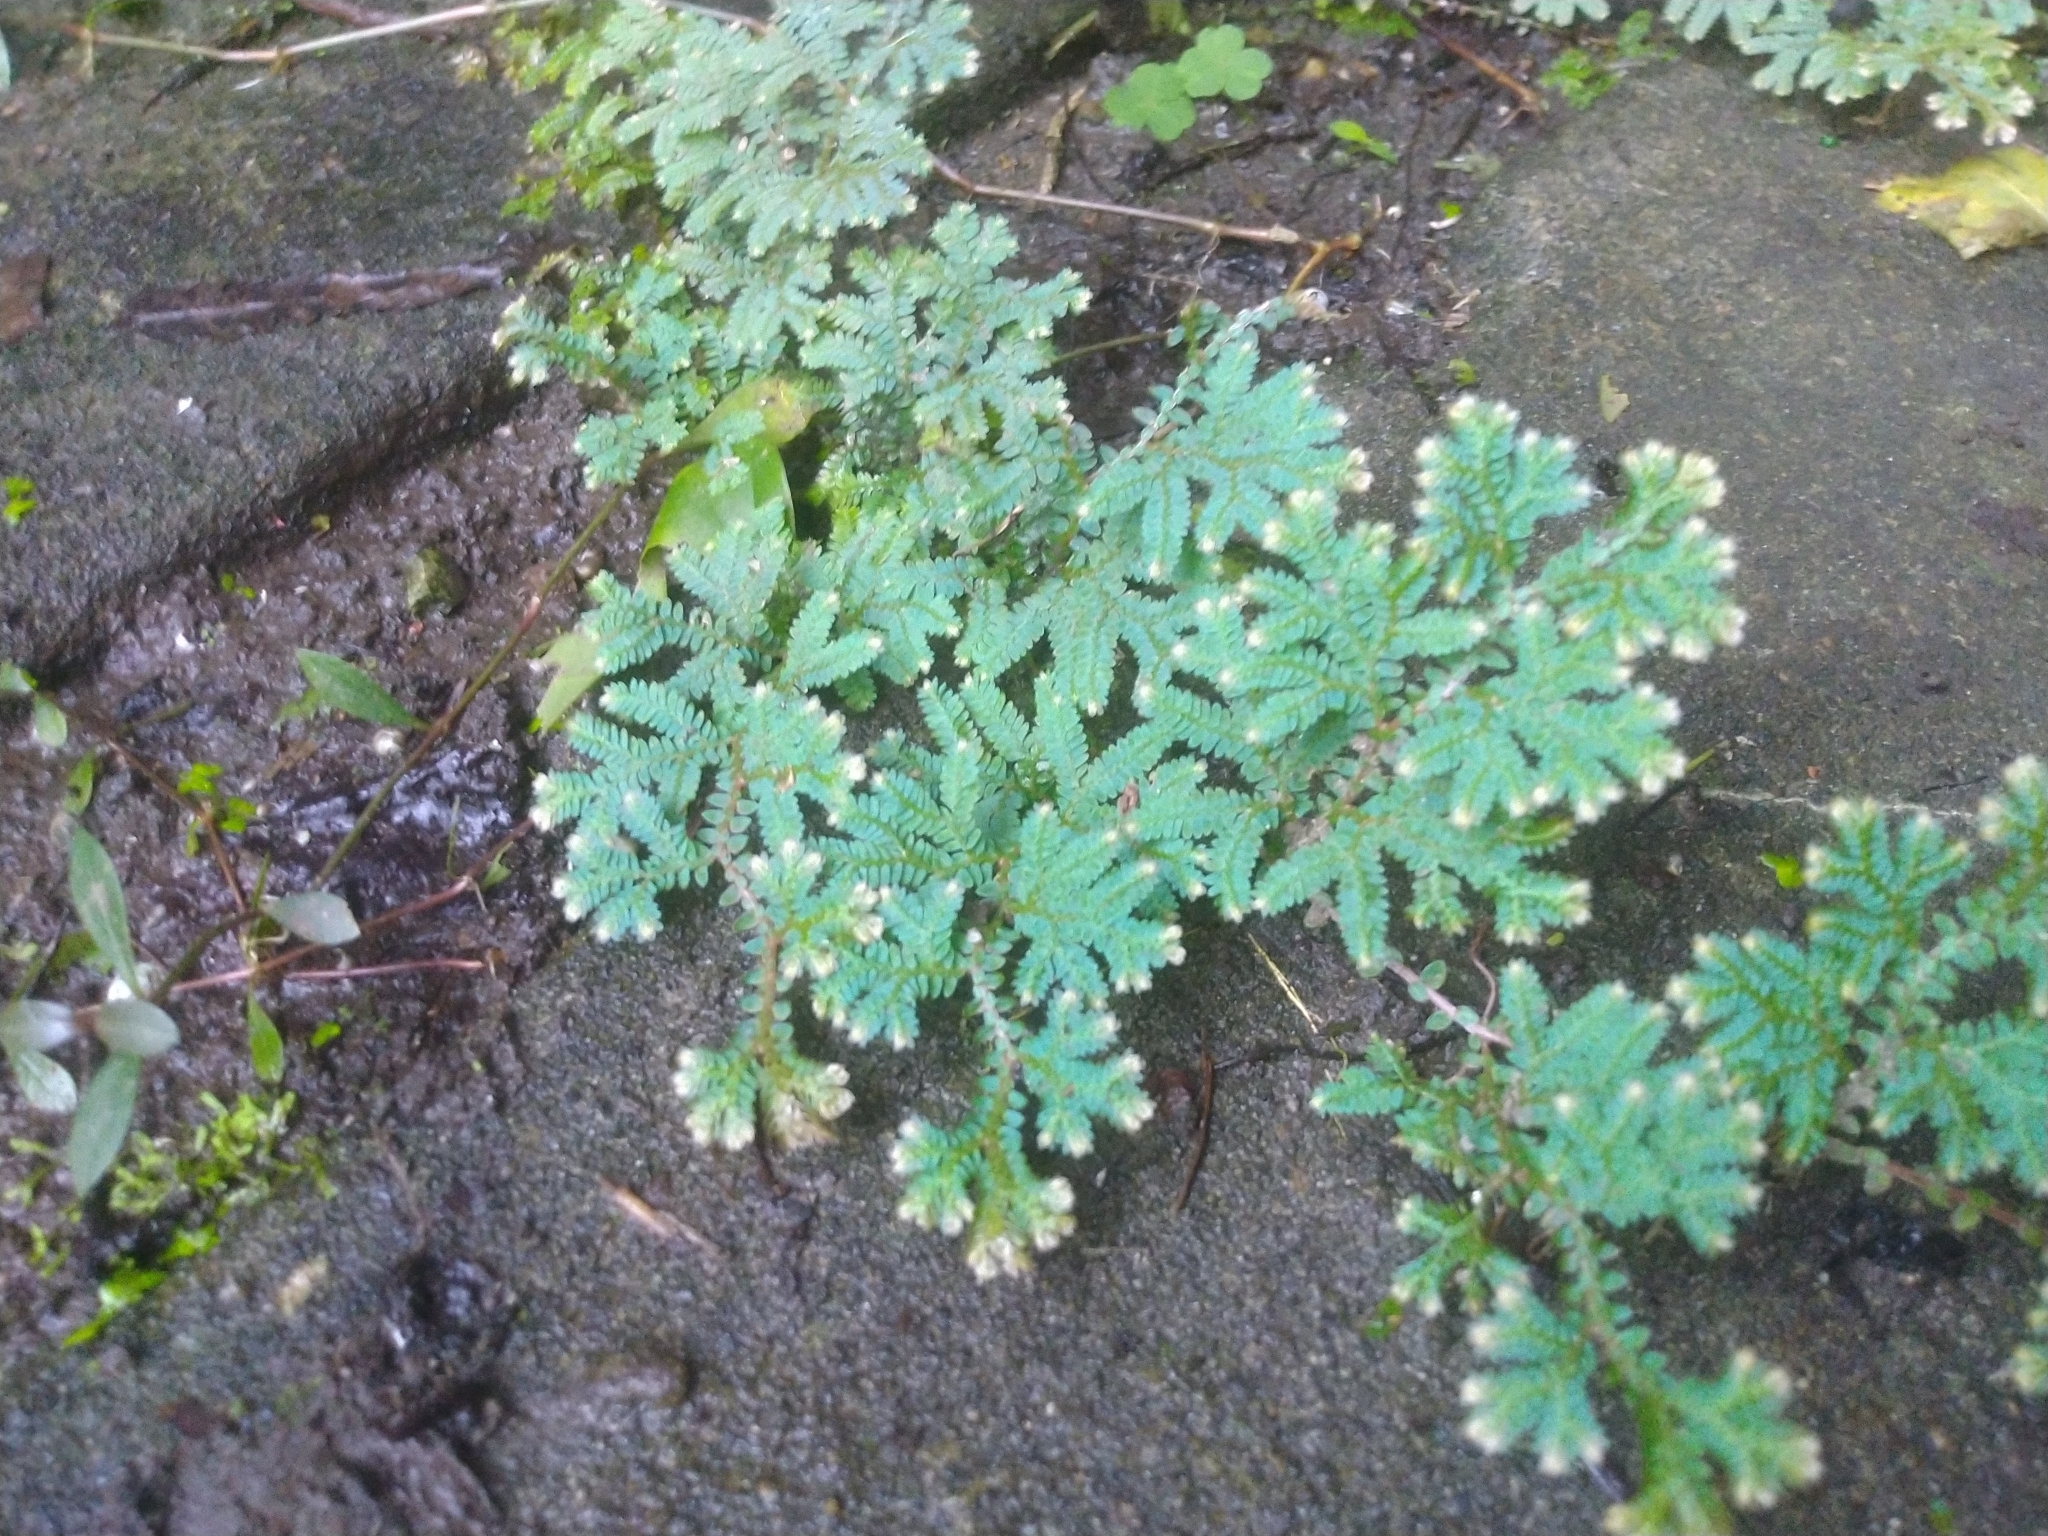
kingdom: Plantae
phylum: Tracheophyta
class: Lycopodiopsida
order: Selaginellales
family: Selaginellaceae
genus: Selaginella
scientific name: Selaginella uncinata
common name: Blue spikemoss
